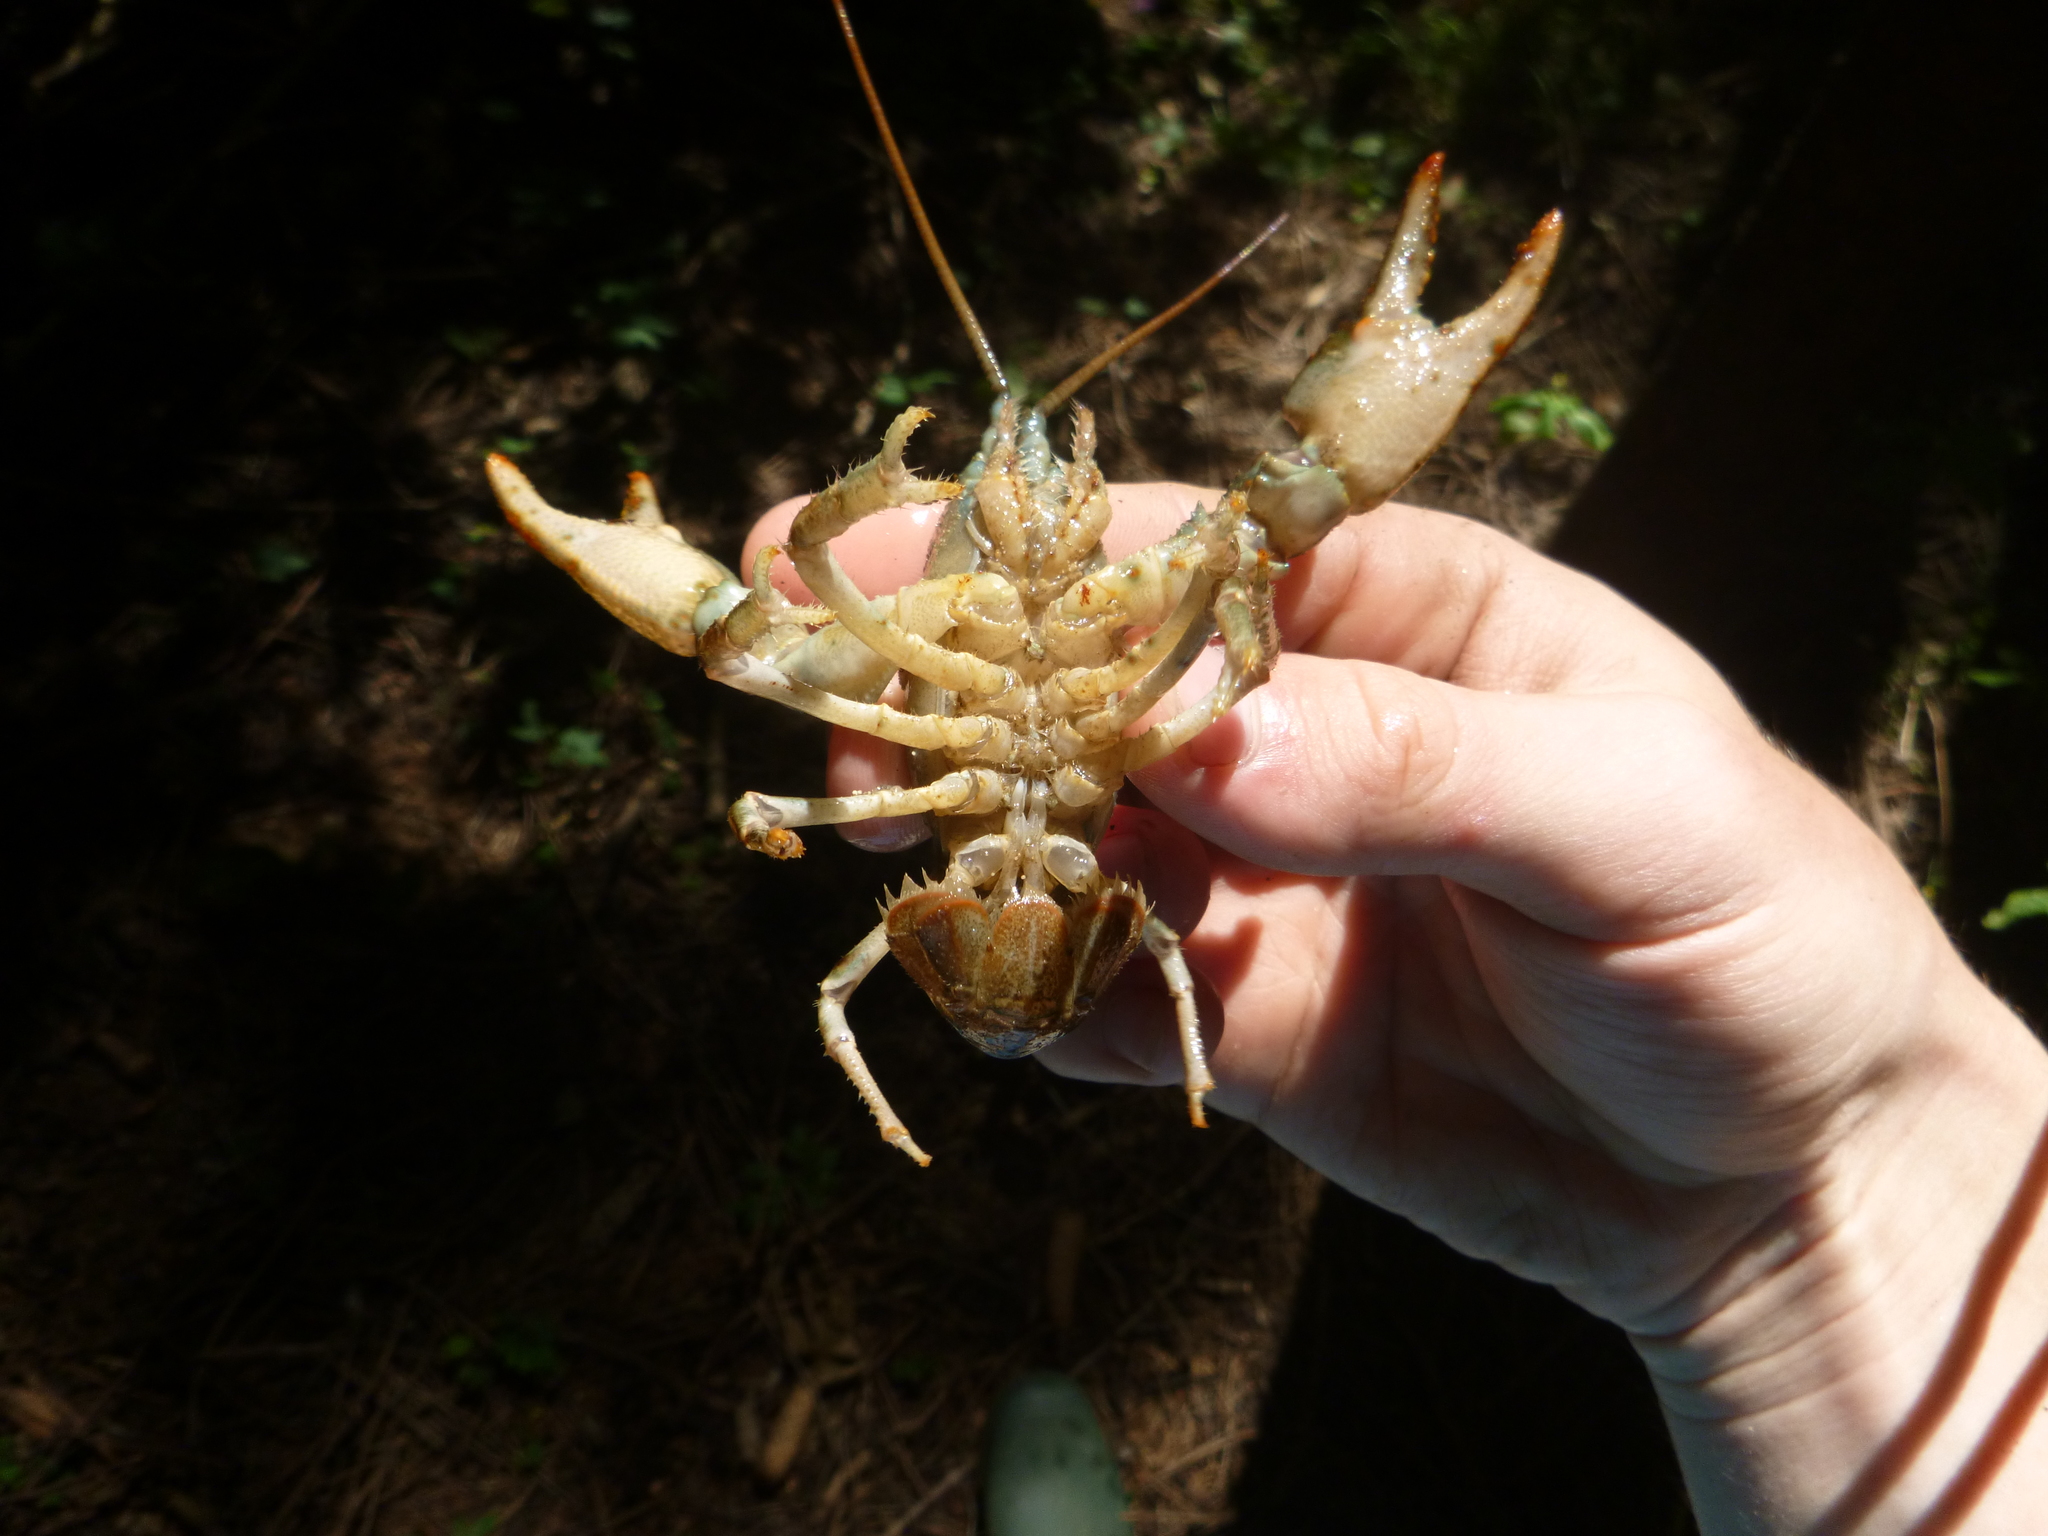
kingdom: Animalia
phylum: Arthropoda
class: Malacostraca
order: Decapoda
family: Astacidae
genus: Austropotamobius
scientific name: Austropotamobius torrentium
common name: Stone crayfish
